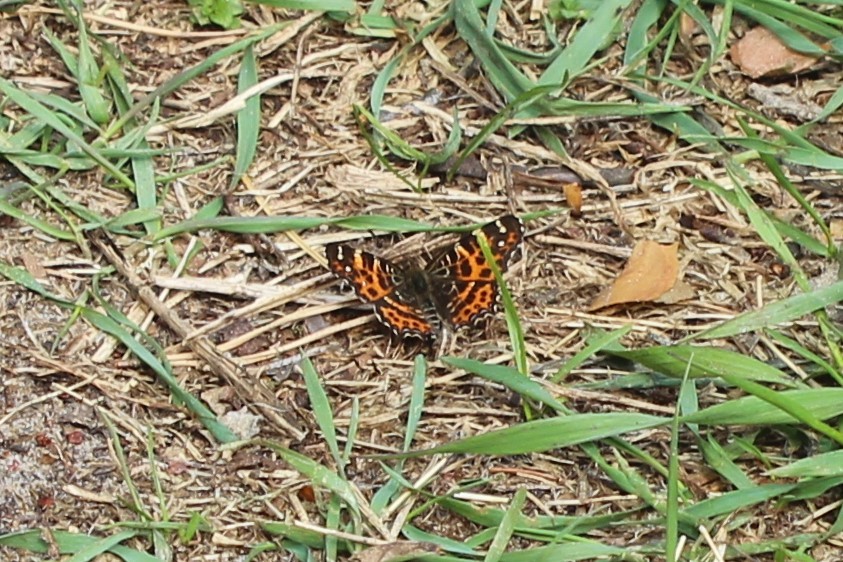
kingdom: Animalia
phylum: Arthropoda
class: Insecta
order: Lepidoptera
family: Nymphalidae
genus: Araschnia
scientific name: Araschnia levana
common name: Map butterfly
